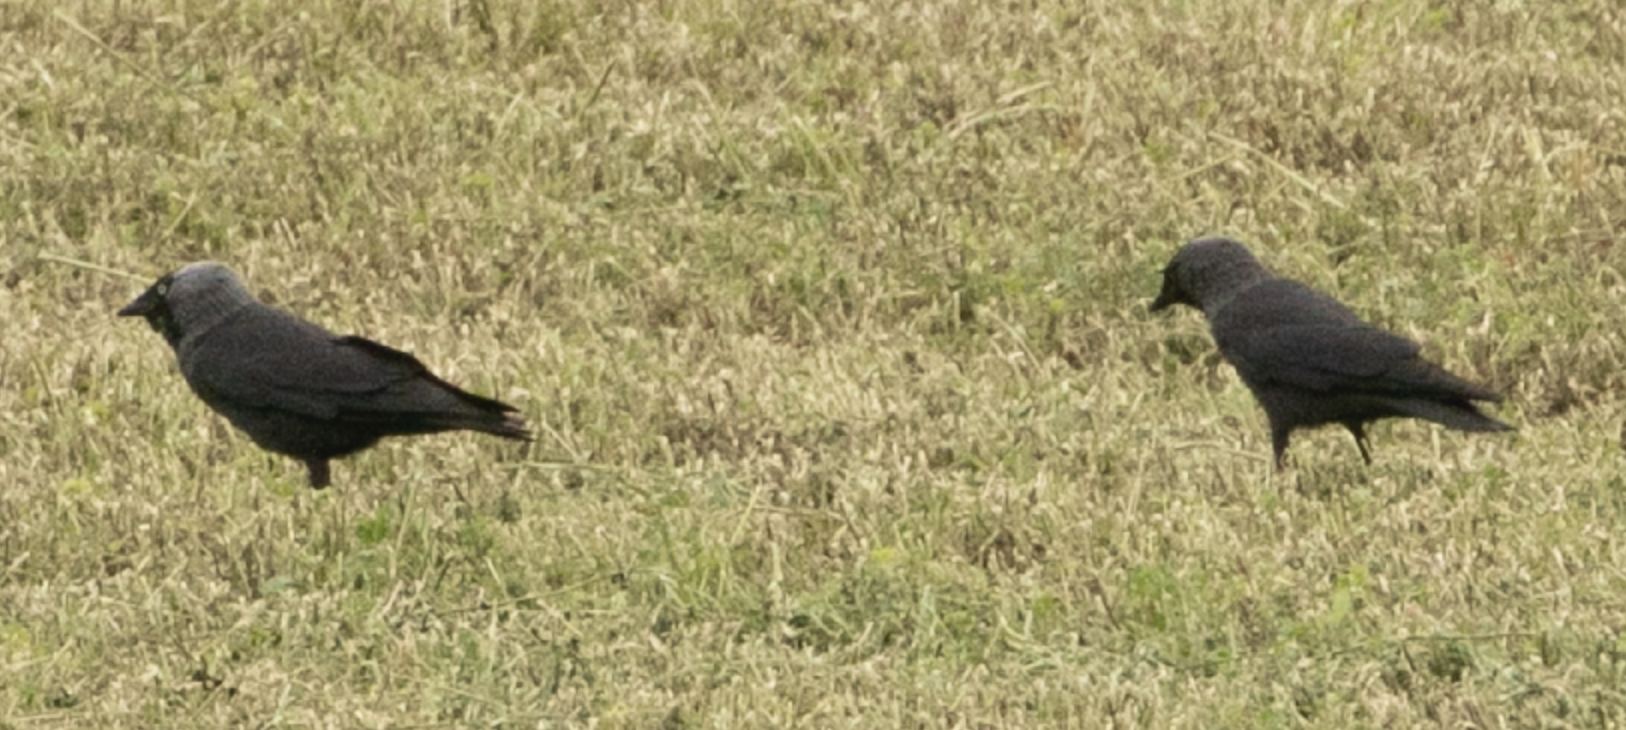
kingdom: Animalia
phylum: Chordata
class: Aves
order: Passeriformes
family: Corvidae
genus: Coloeus
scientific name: Coloeus monedula
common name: Western jackdaw
